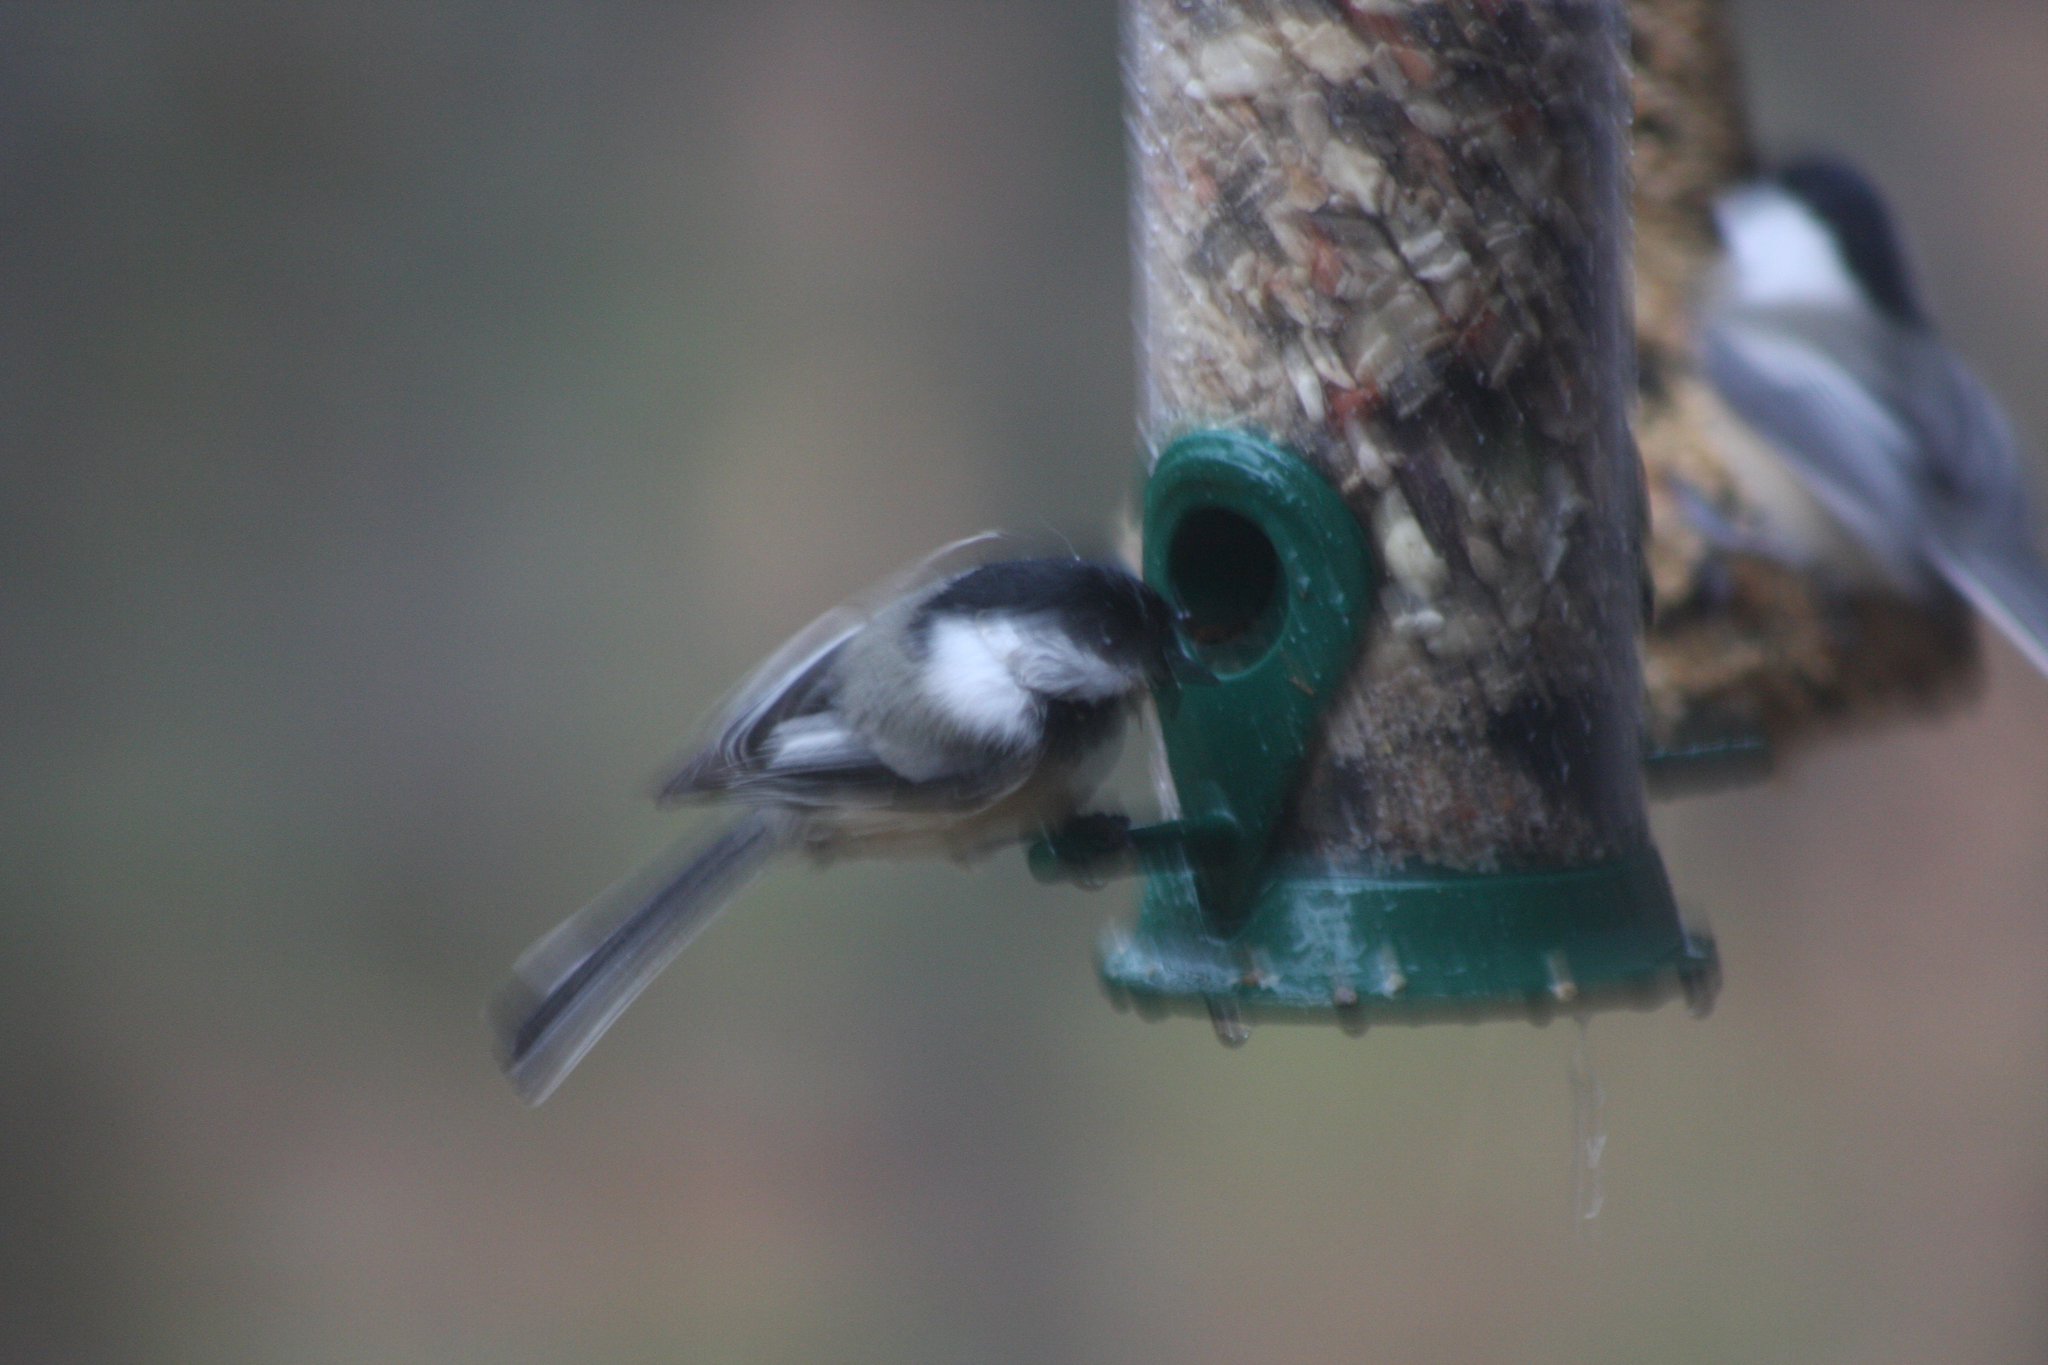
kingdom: Animalia
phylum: Chordata
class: Aves
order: Passeriformes
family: Paridae
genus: Poecile
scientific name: Poecile atricapillus
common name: Black-capped chickadee
